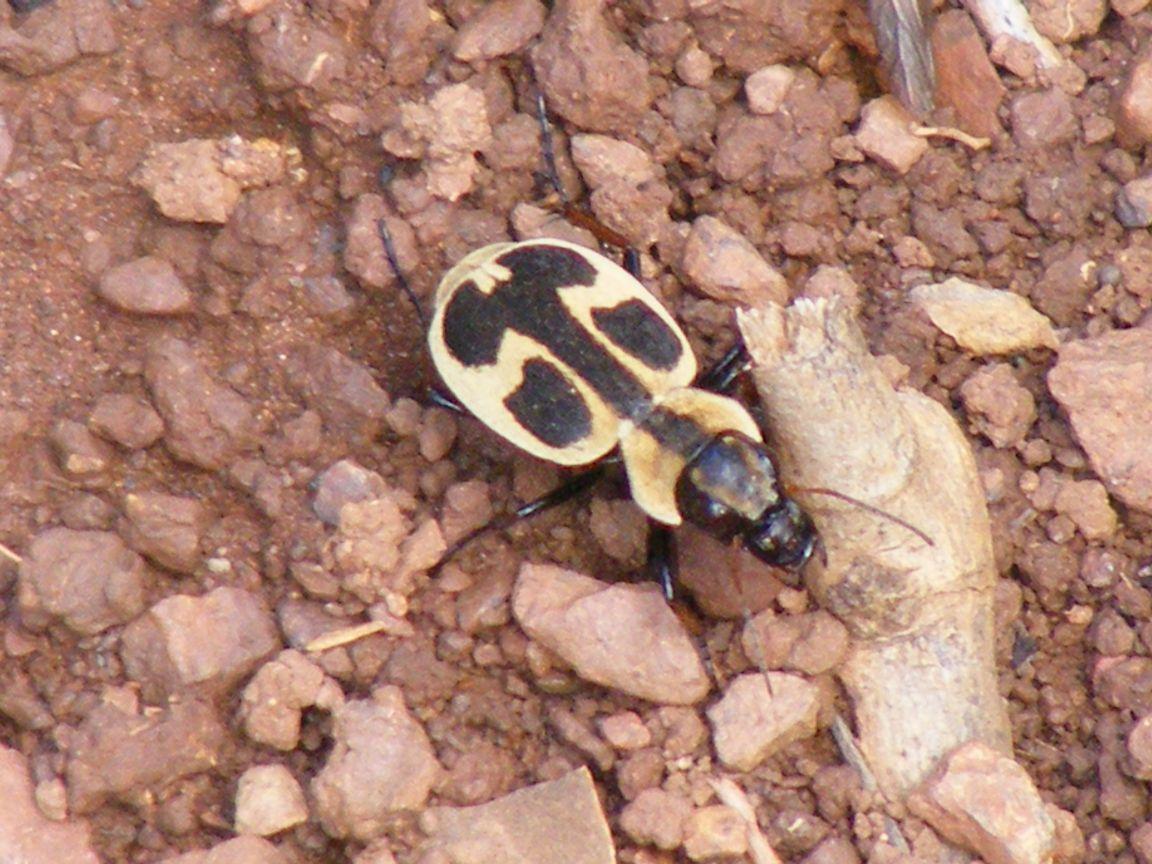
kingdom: Animalia
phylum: Arthropoda
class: Insecta
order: Coleoptera
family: Carabidae
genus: Graphipterus
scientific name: Graphipterus obliteratus
